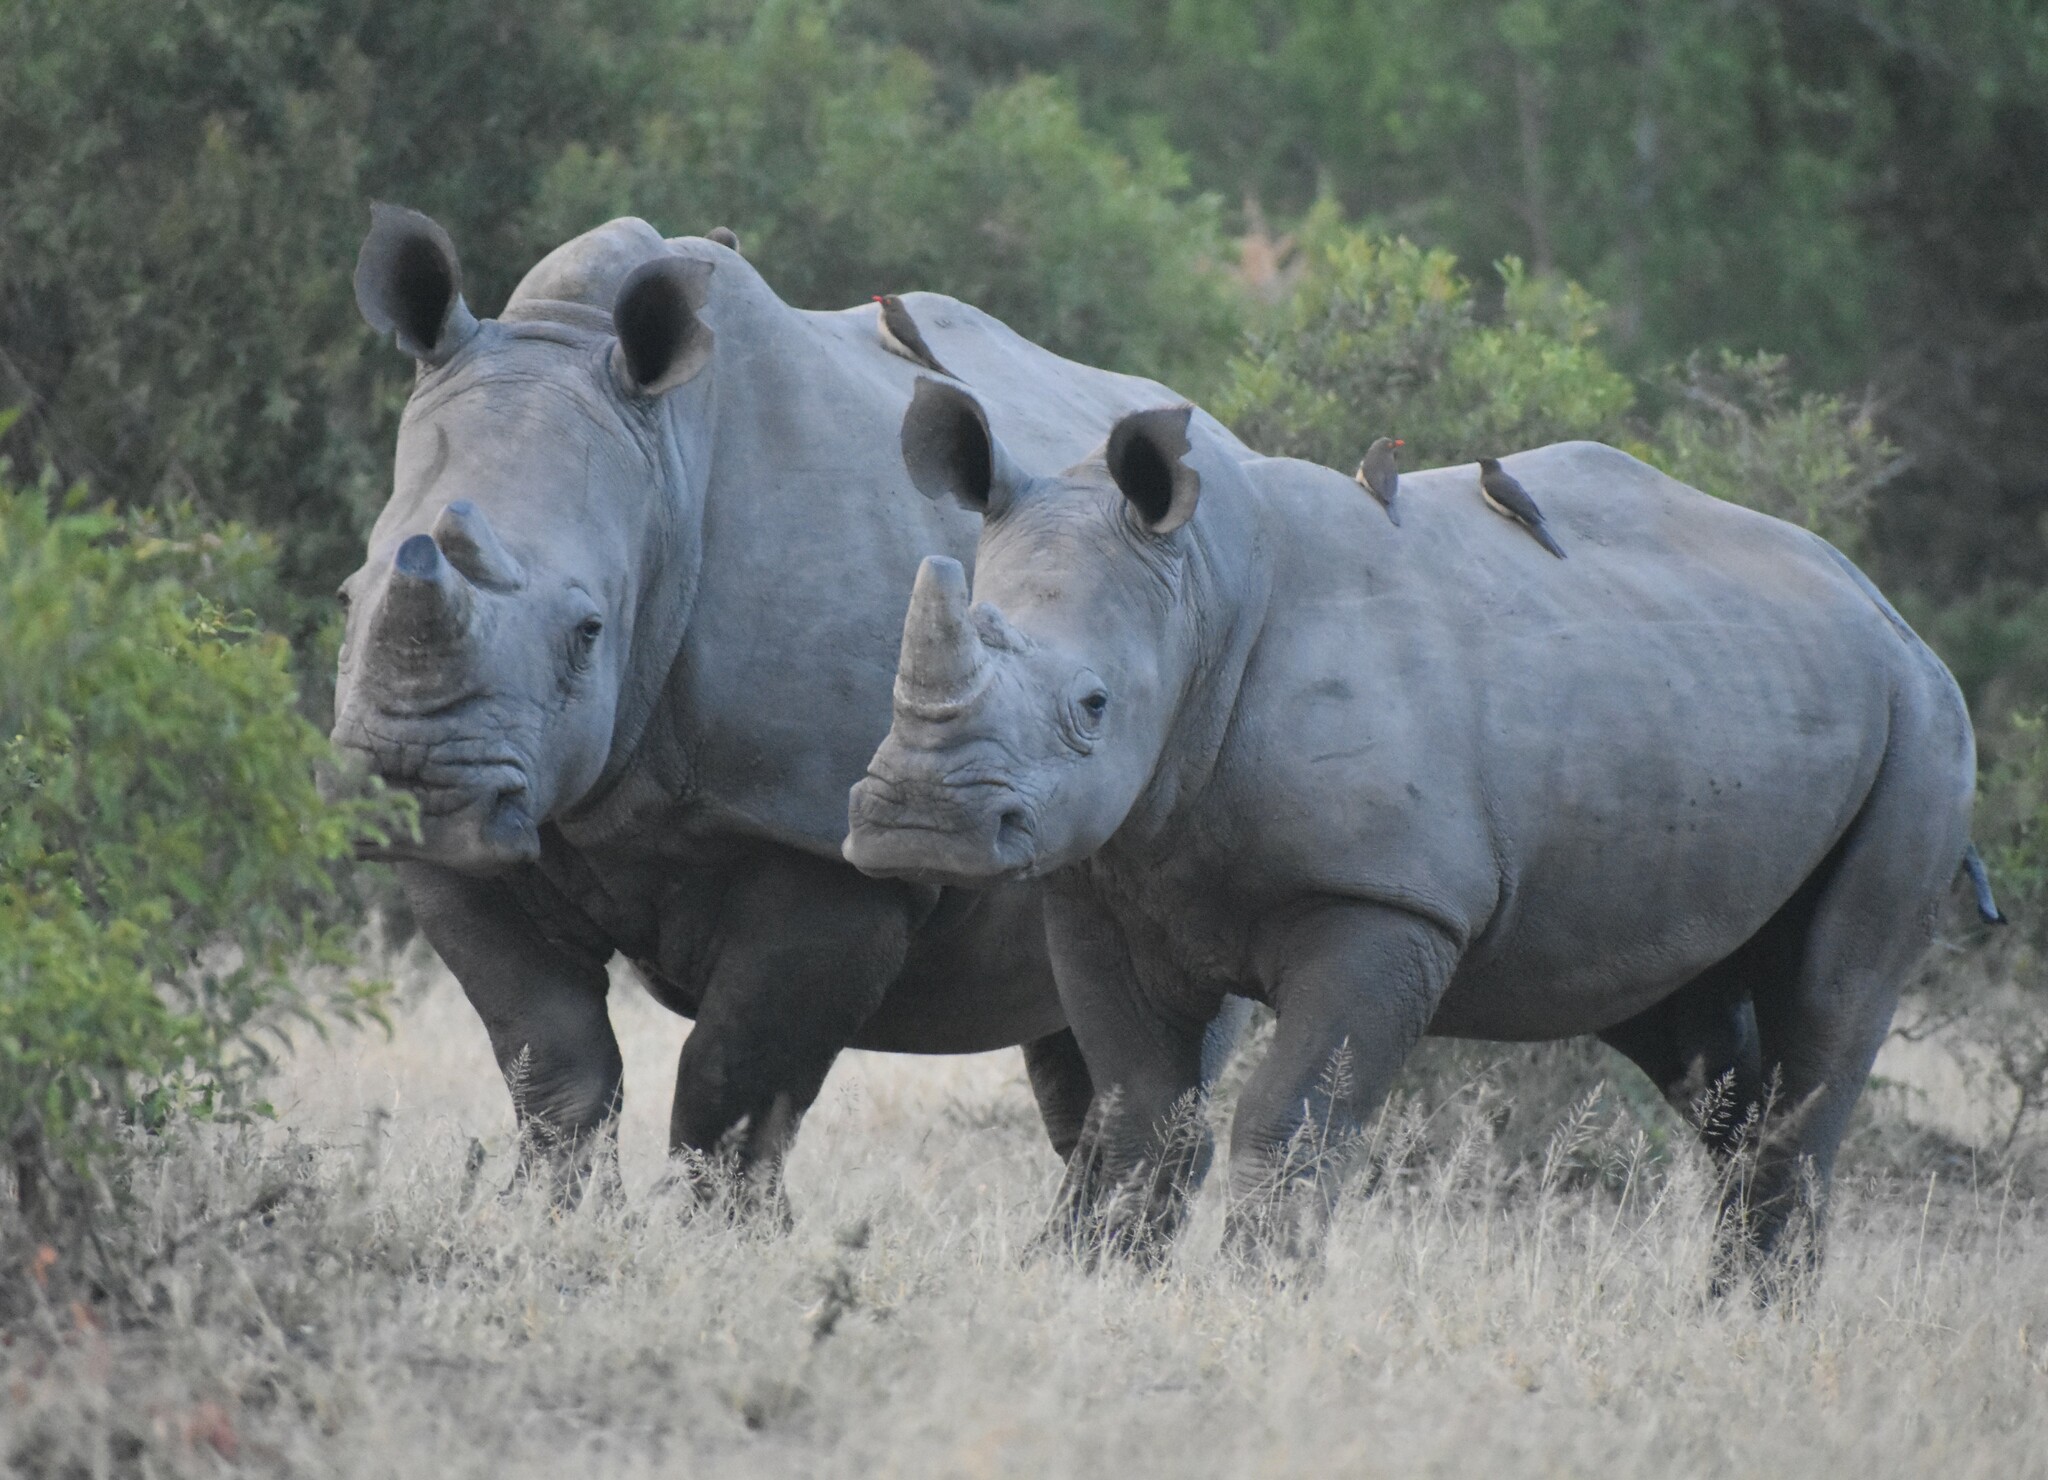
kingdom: Animalia
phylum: Chordata
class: Mammalia
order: Perissodactyla
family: Rhinocerotidae
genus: Ceratotherium
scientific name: Ceratotherium simum
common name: White rhinoceros
